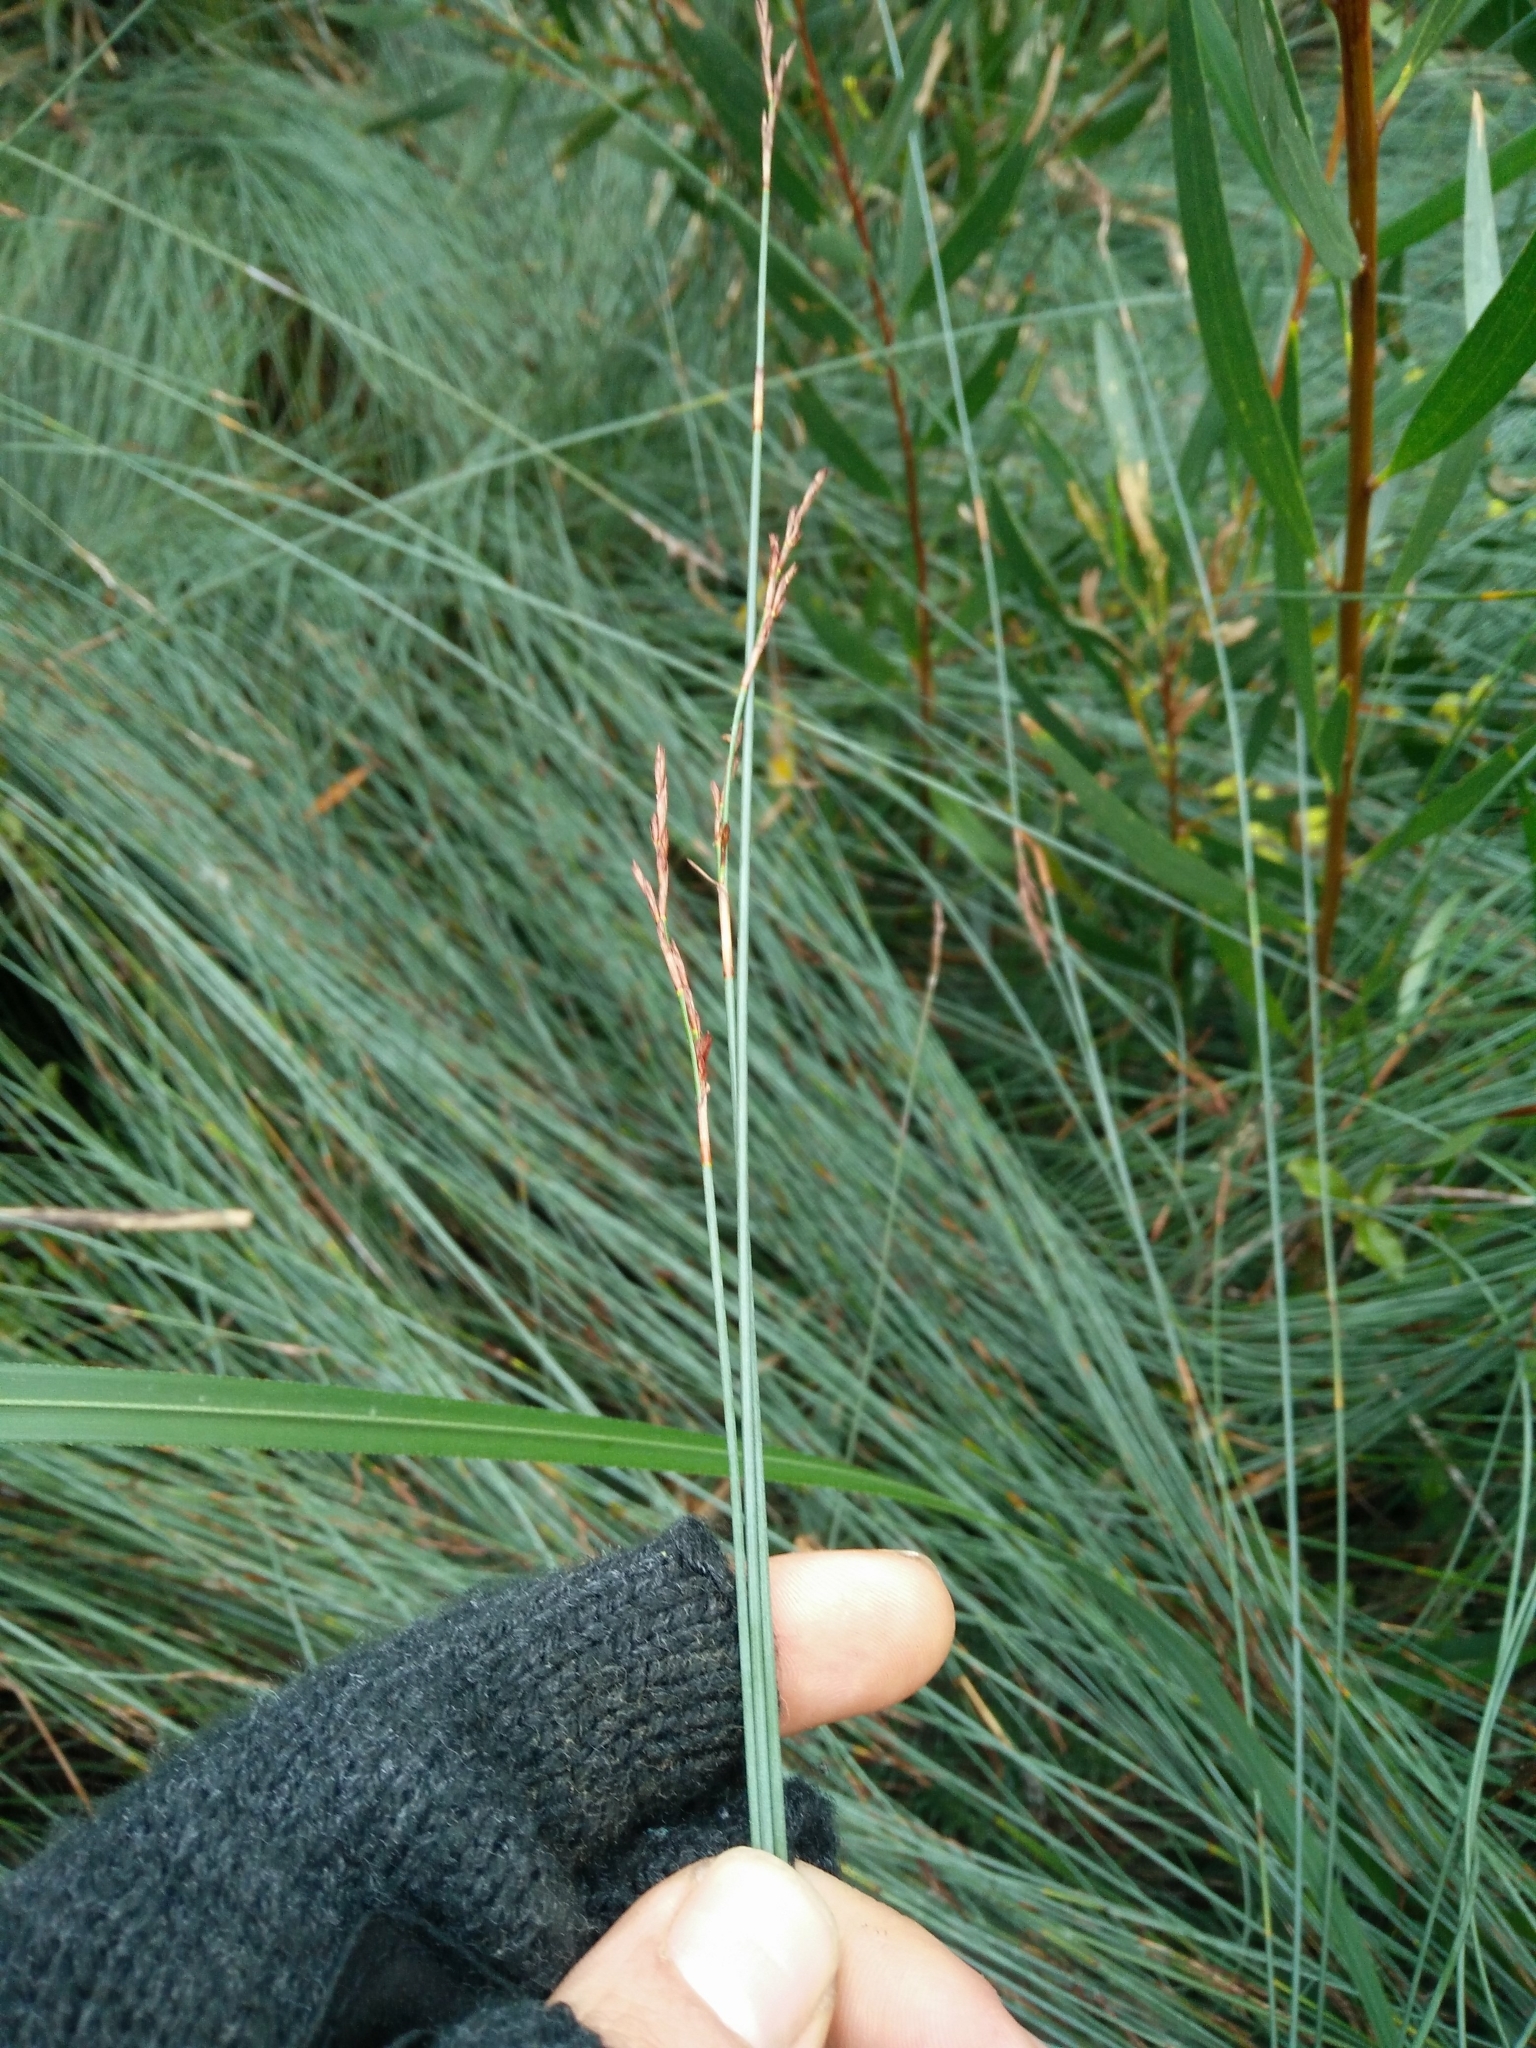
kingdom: Plantae
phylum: Tracheophyta
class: Liliopsida
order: Poales
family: Cyperaceae
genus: Machaerina
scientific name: Machaerina juncea
